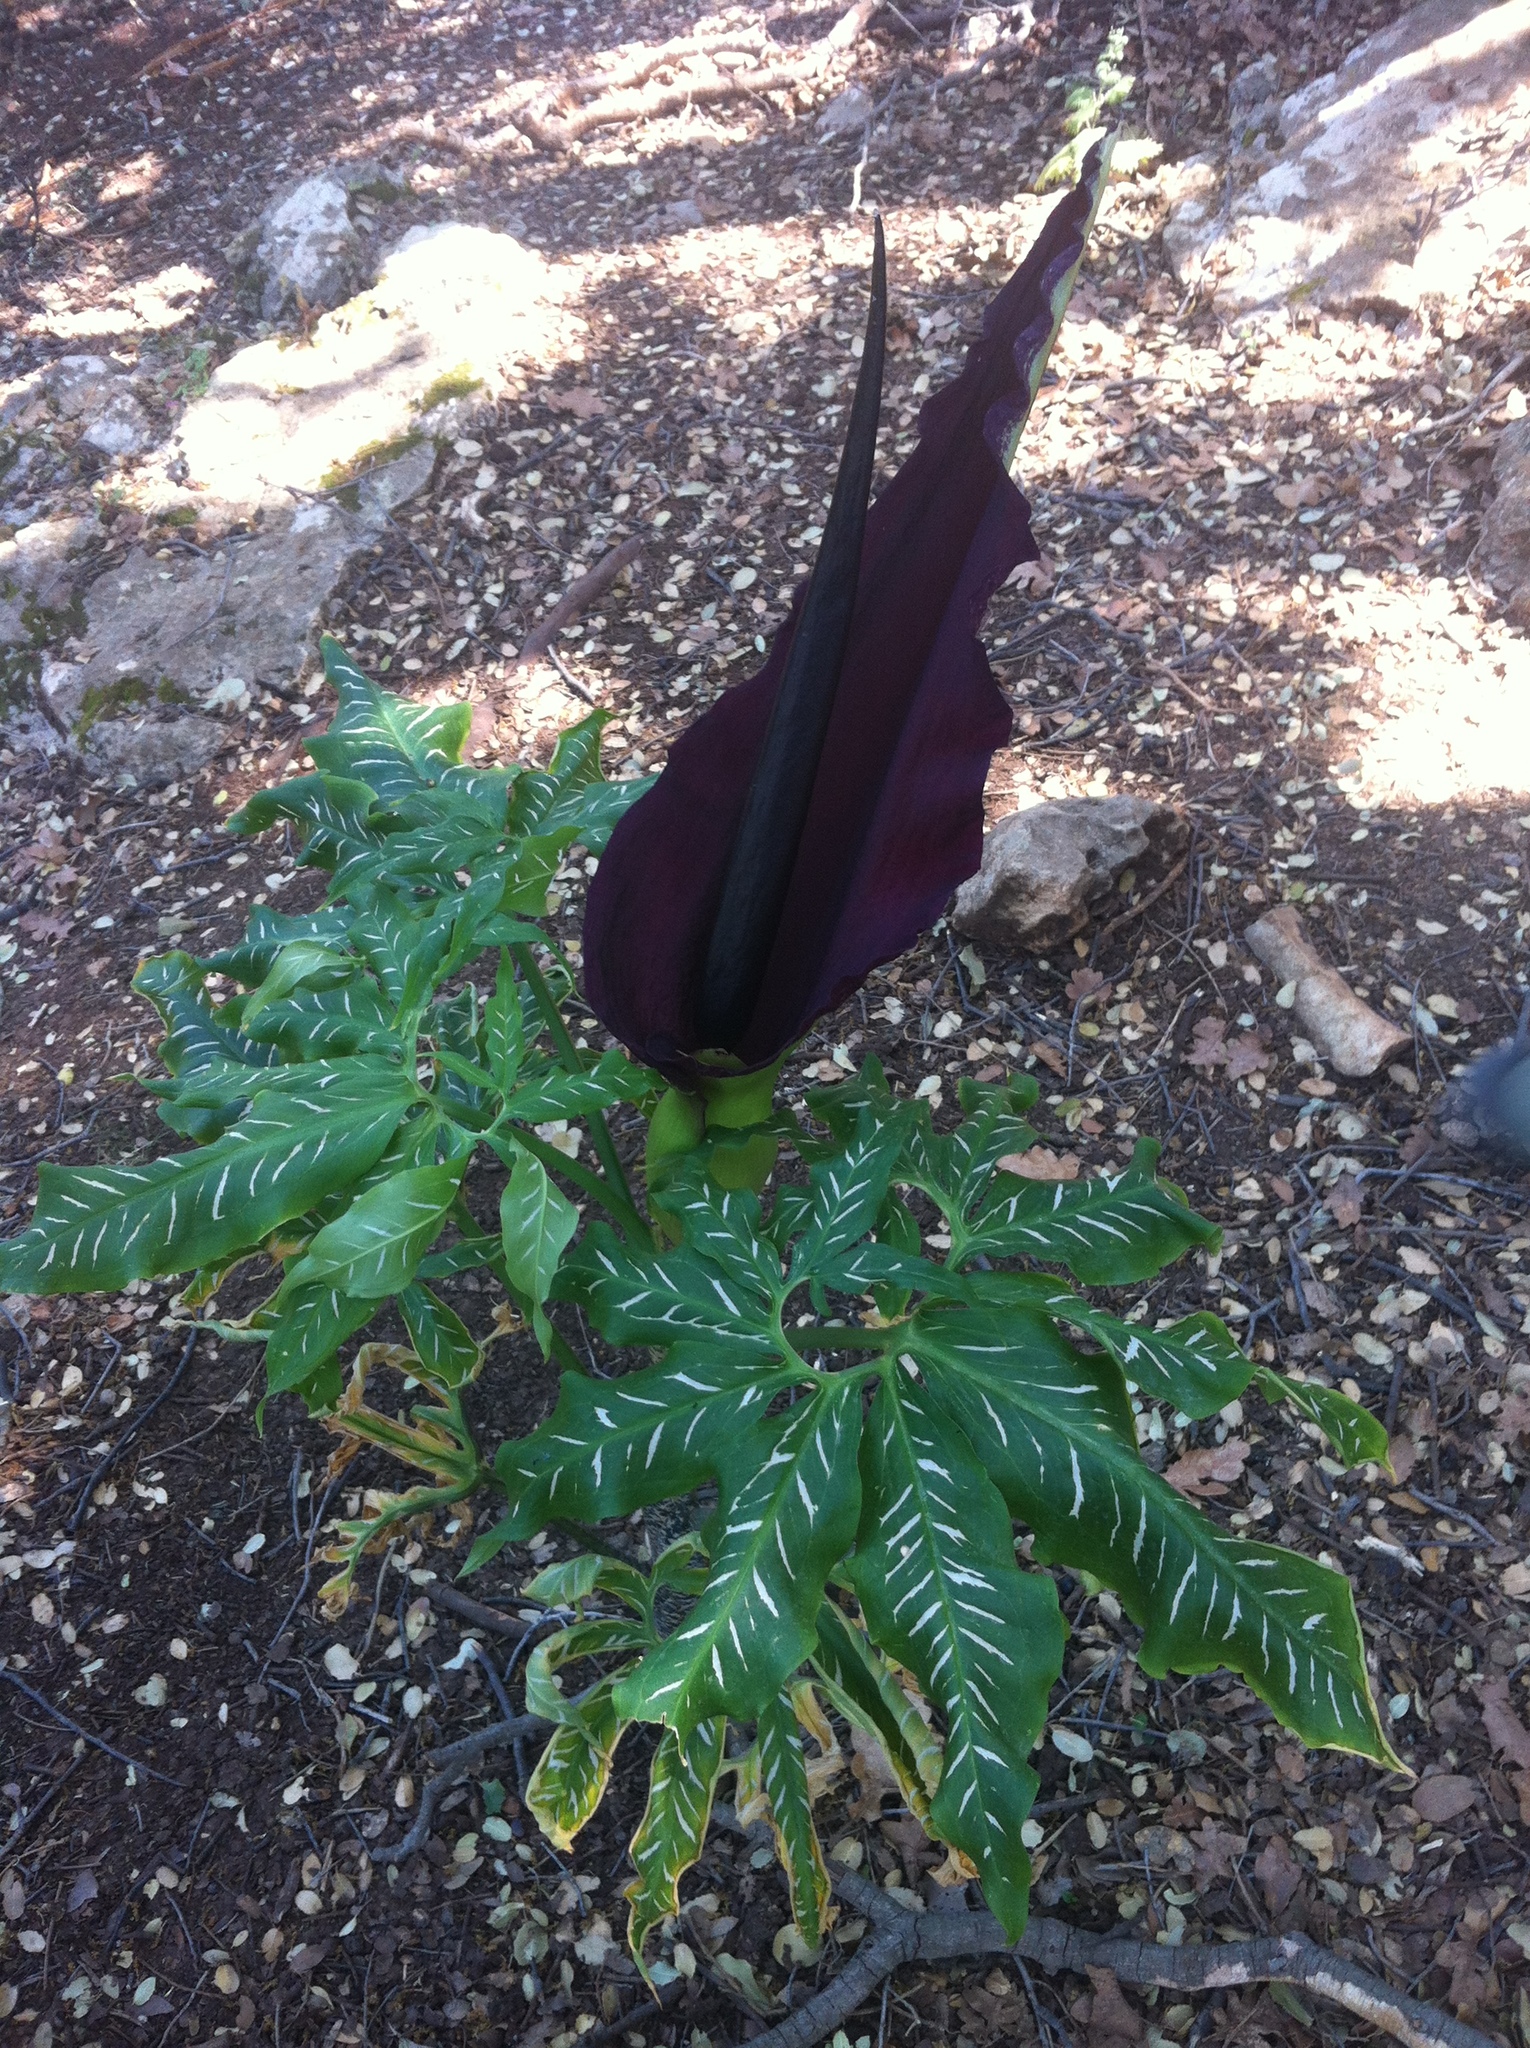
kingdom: Plantae
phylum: Tracheophyta
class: Liliopsida
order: Alismatales
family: Araceae
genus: Dracunculus
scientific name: Dracunculus vulgaris
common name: Dragon arum
